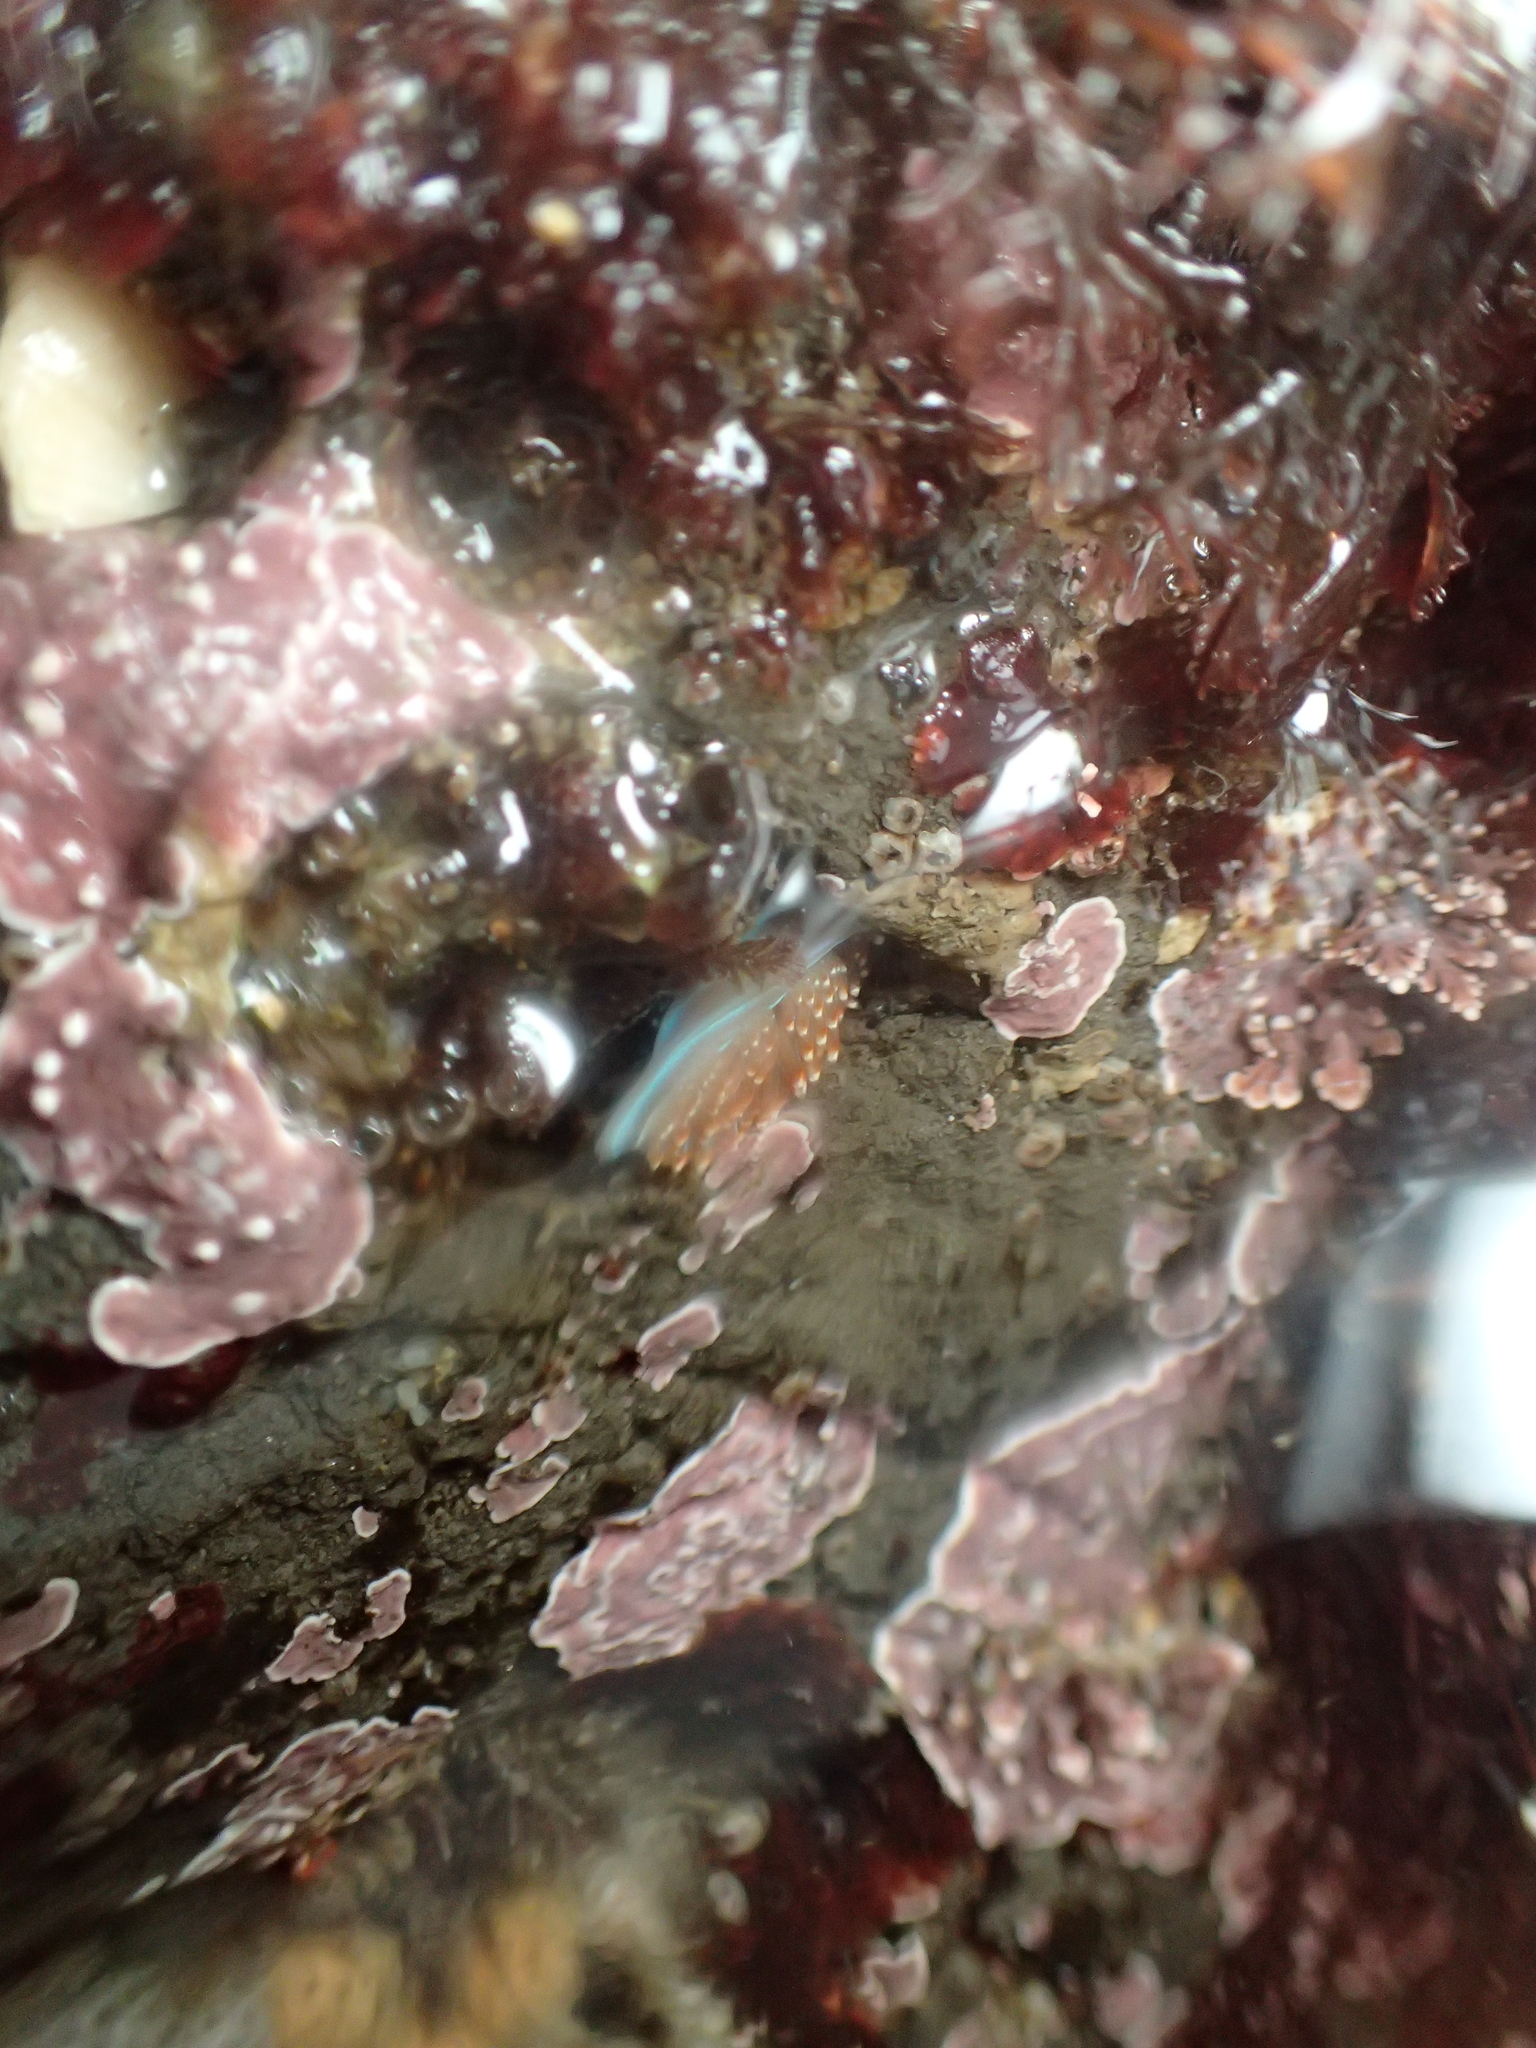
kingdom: Animalia
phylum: Mollusca
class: Gastropoda
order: Nudibranchia
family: Myrrhinidae
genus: Hermissenda
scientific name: Hermissenda opalescens
